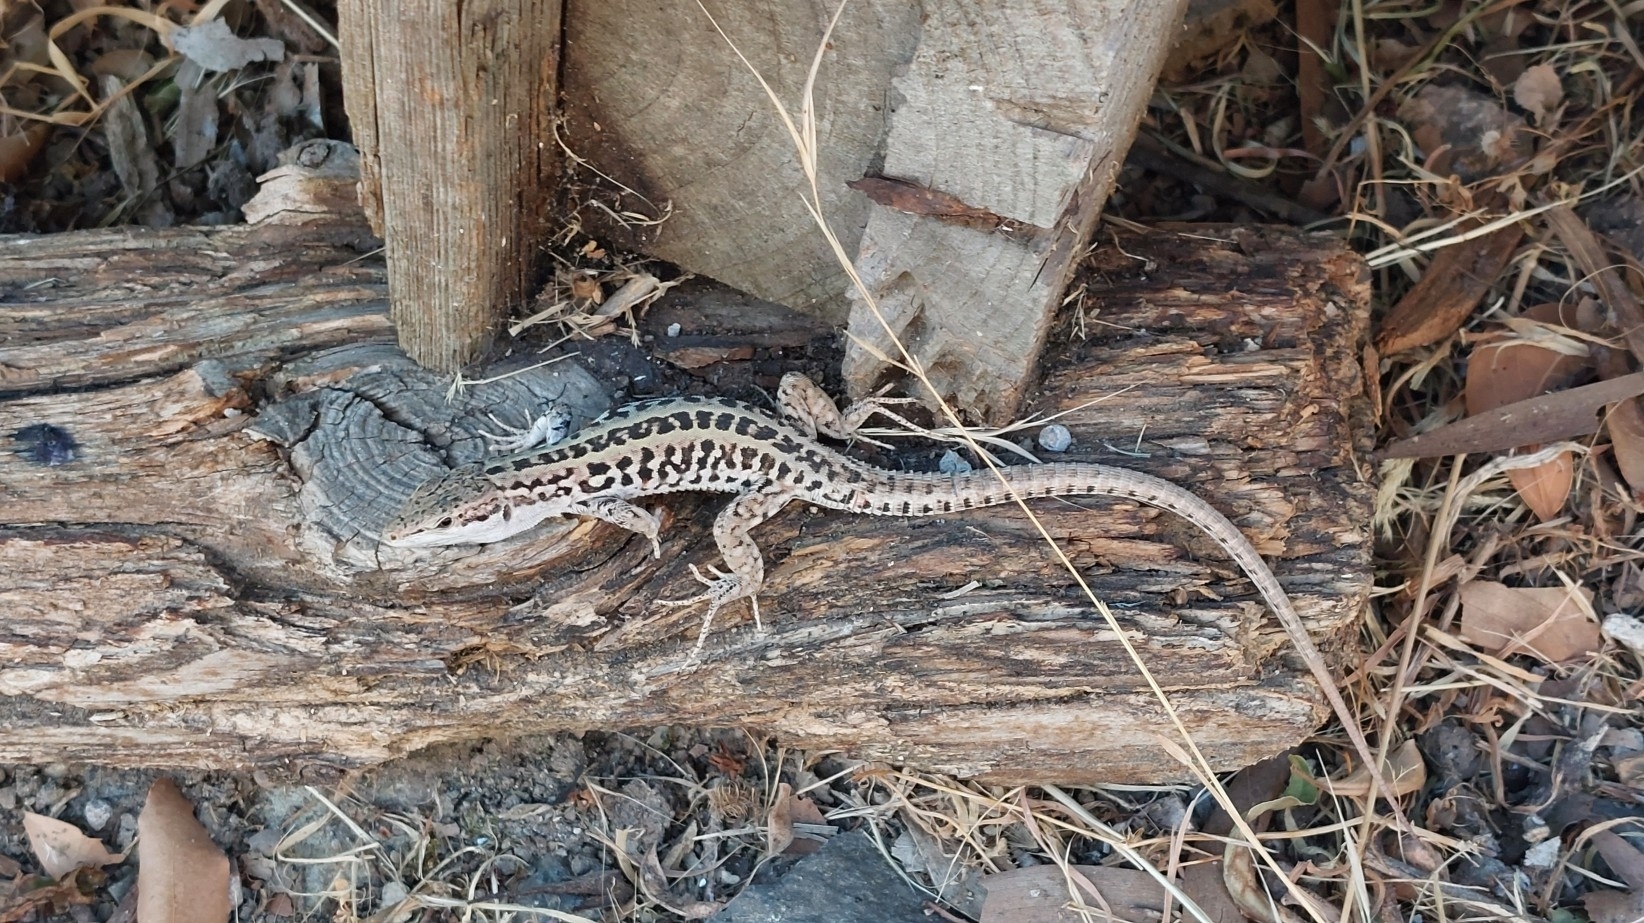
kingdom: Animalia
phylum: Chordata
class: Squamata
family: Lacertidae
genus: Podarcis
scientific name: Podarcis siculus
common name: Italian wall lizard
